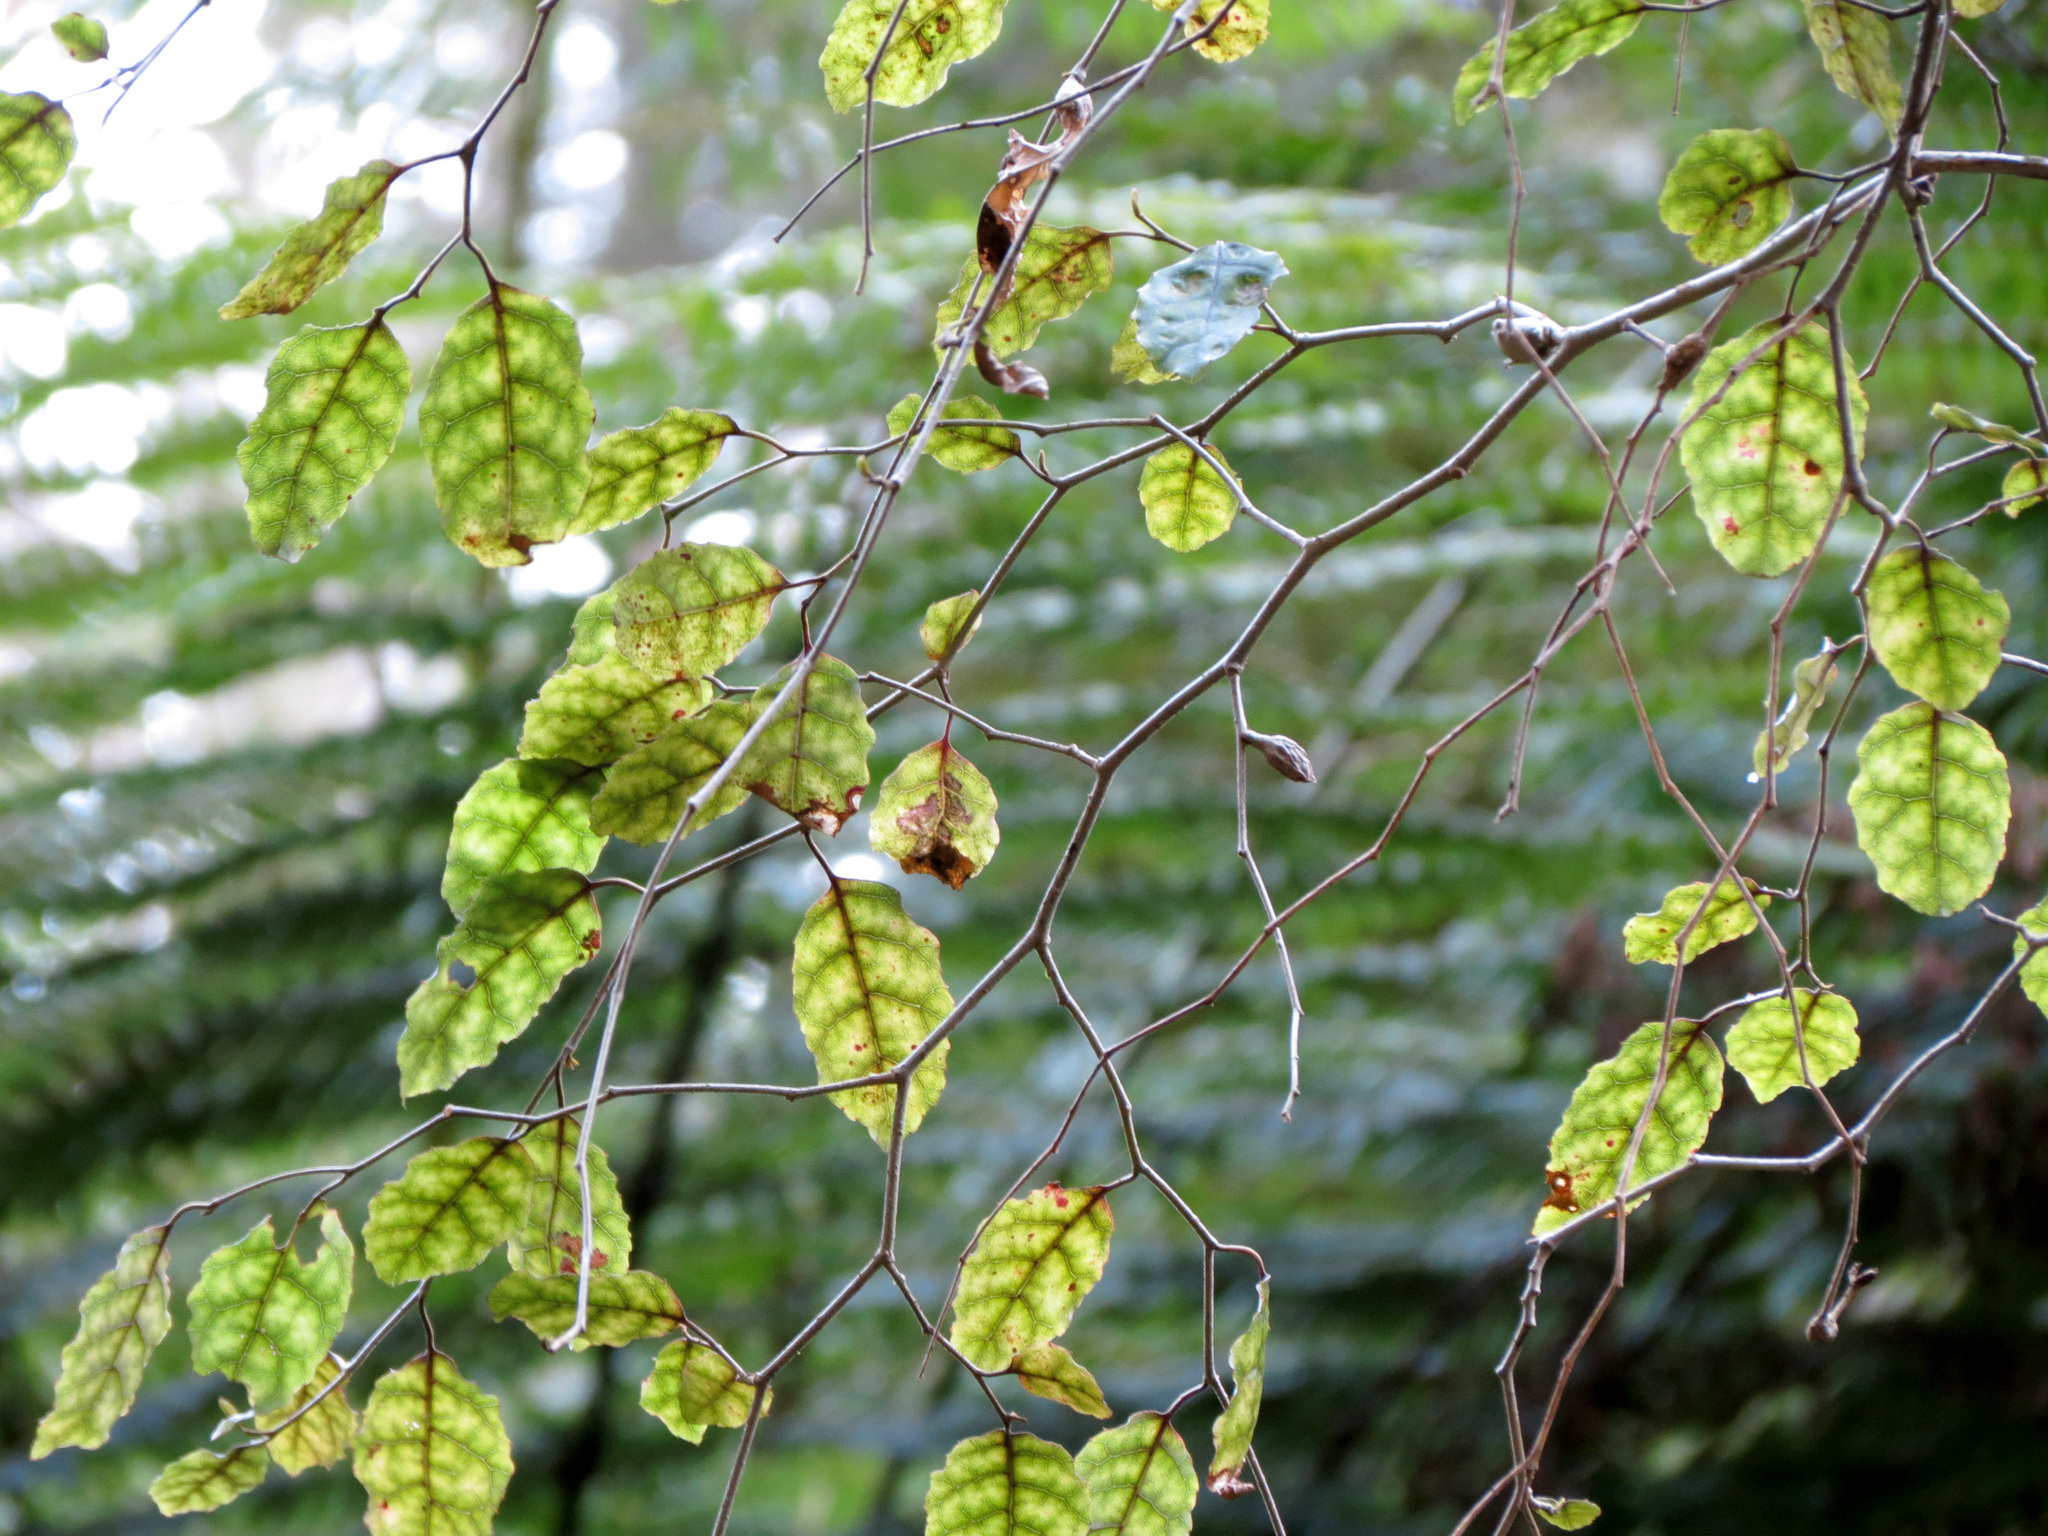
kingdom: Plantae
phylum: Tracheophyta
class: Magnoliopsida
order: Asterales
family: Rousseaceae
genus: Carpodetus
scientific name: Carpodetus serratus
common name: White mapau
